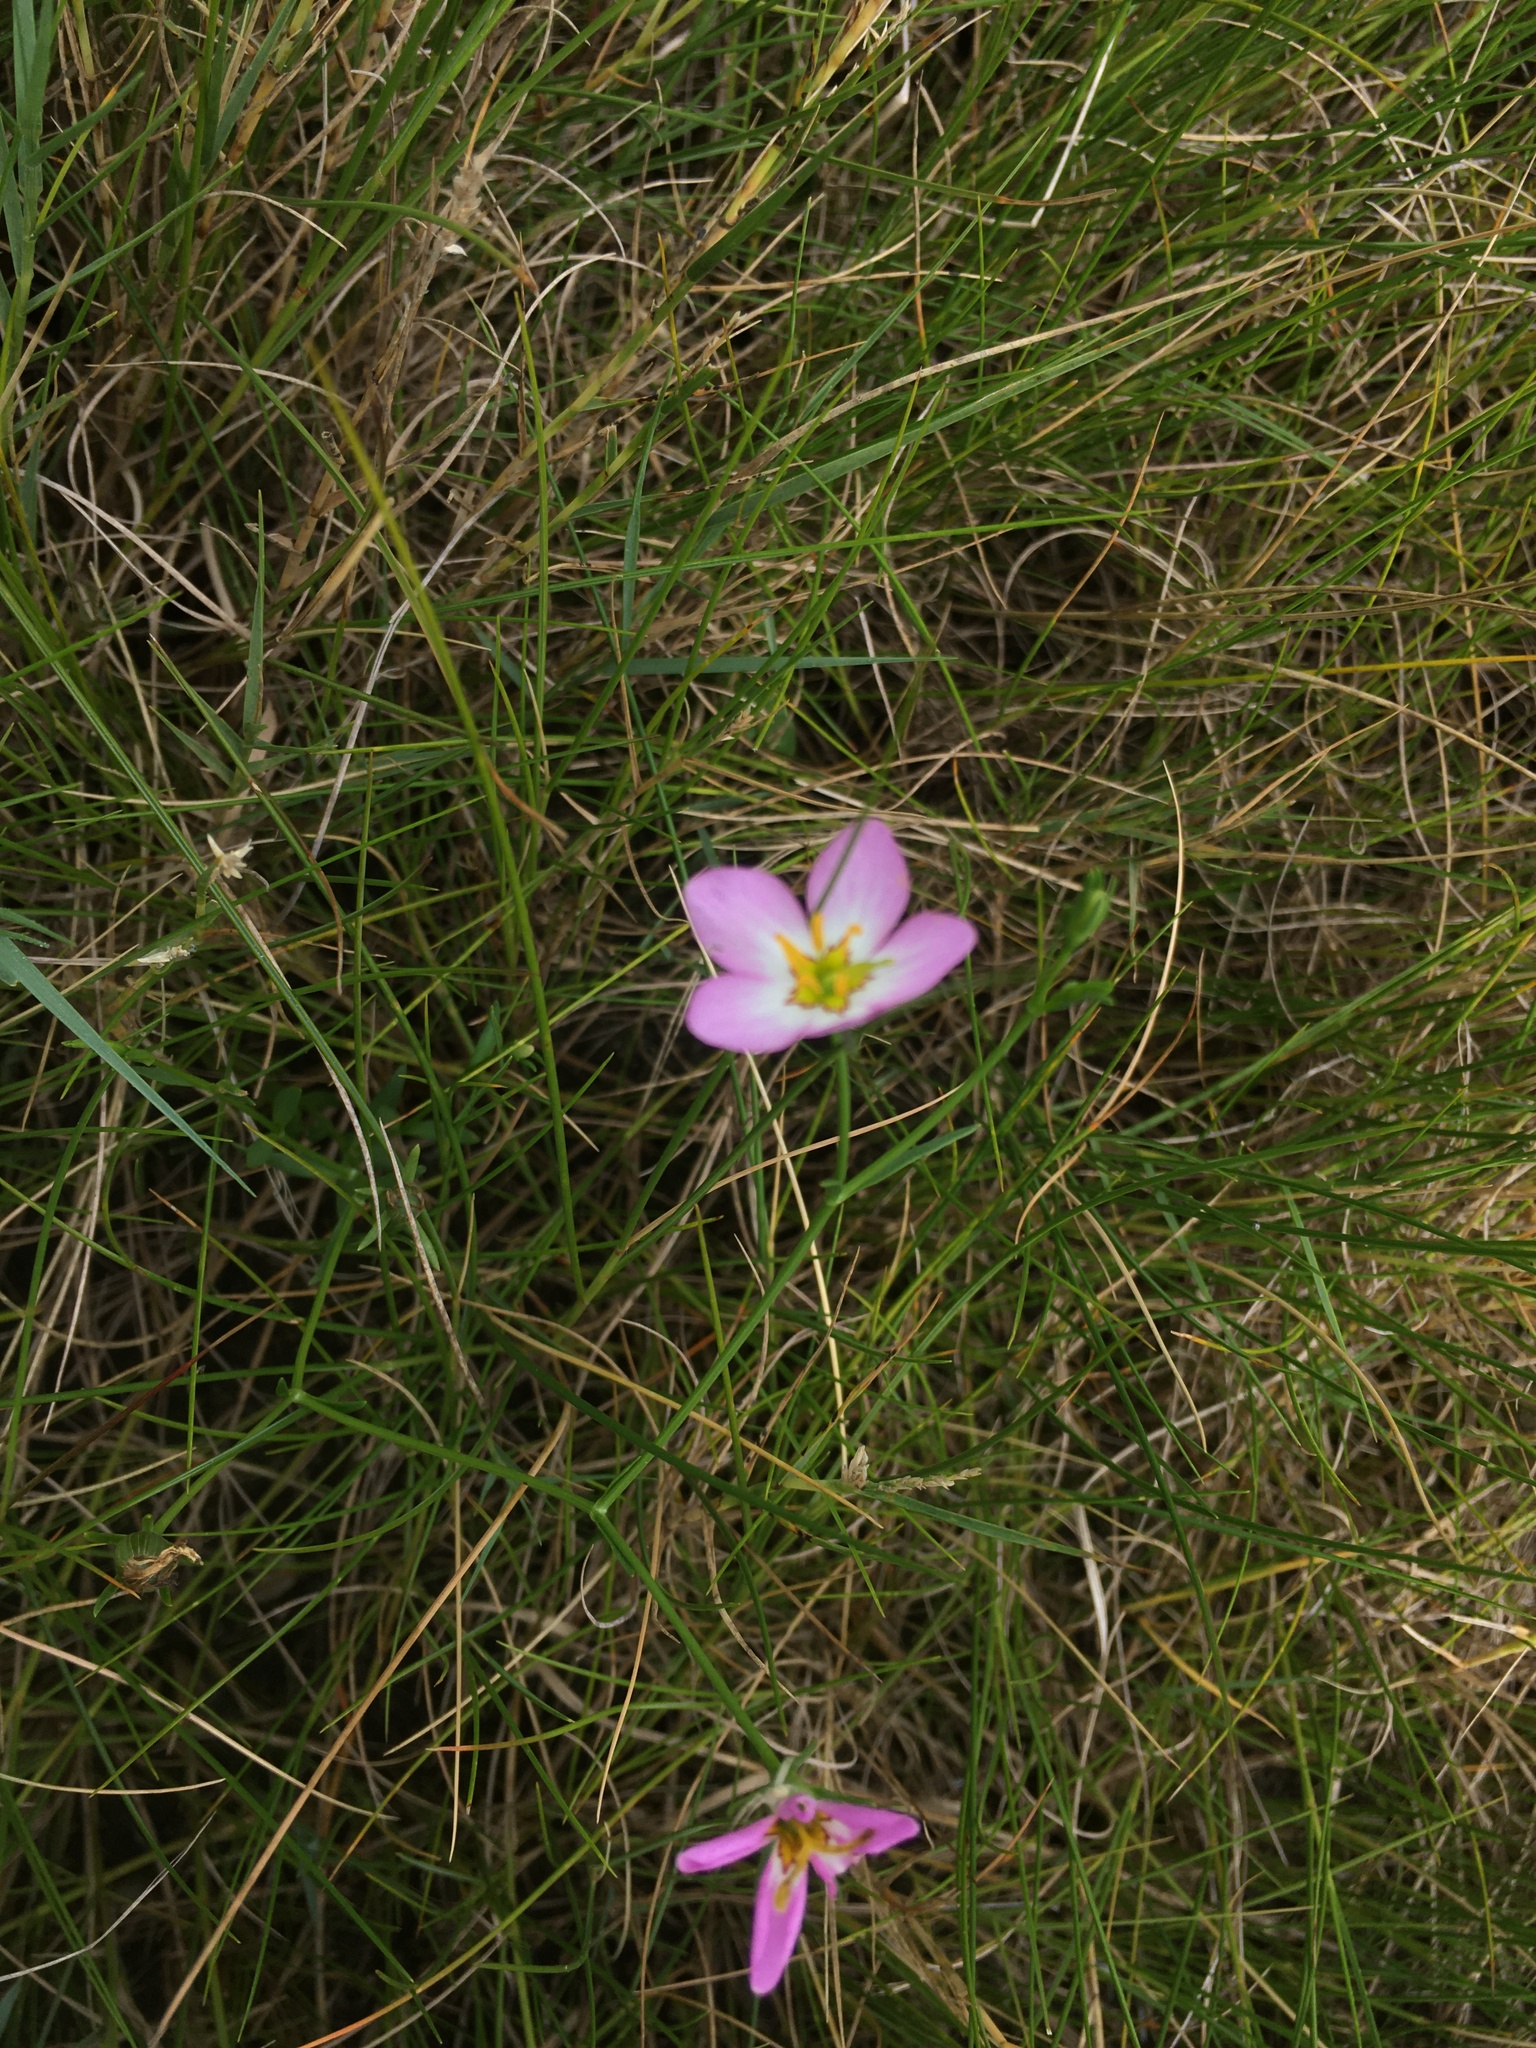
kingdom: Plantae
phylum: Tracheophyta
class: Magnoliopsida
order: Gentianales
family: Gentianaceae
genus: Sabatia
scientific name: Sabatia stellaris
